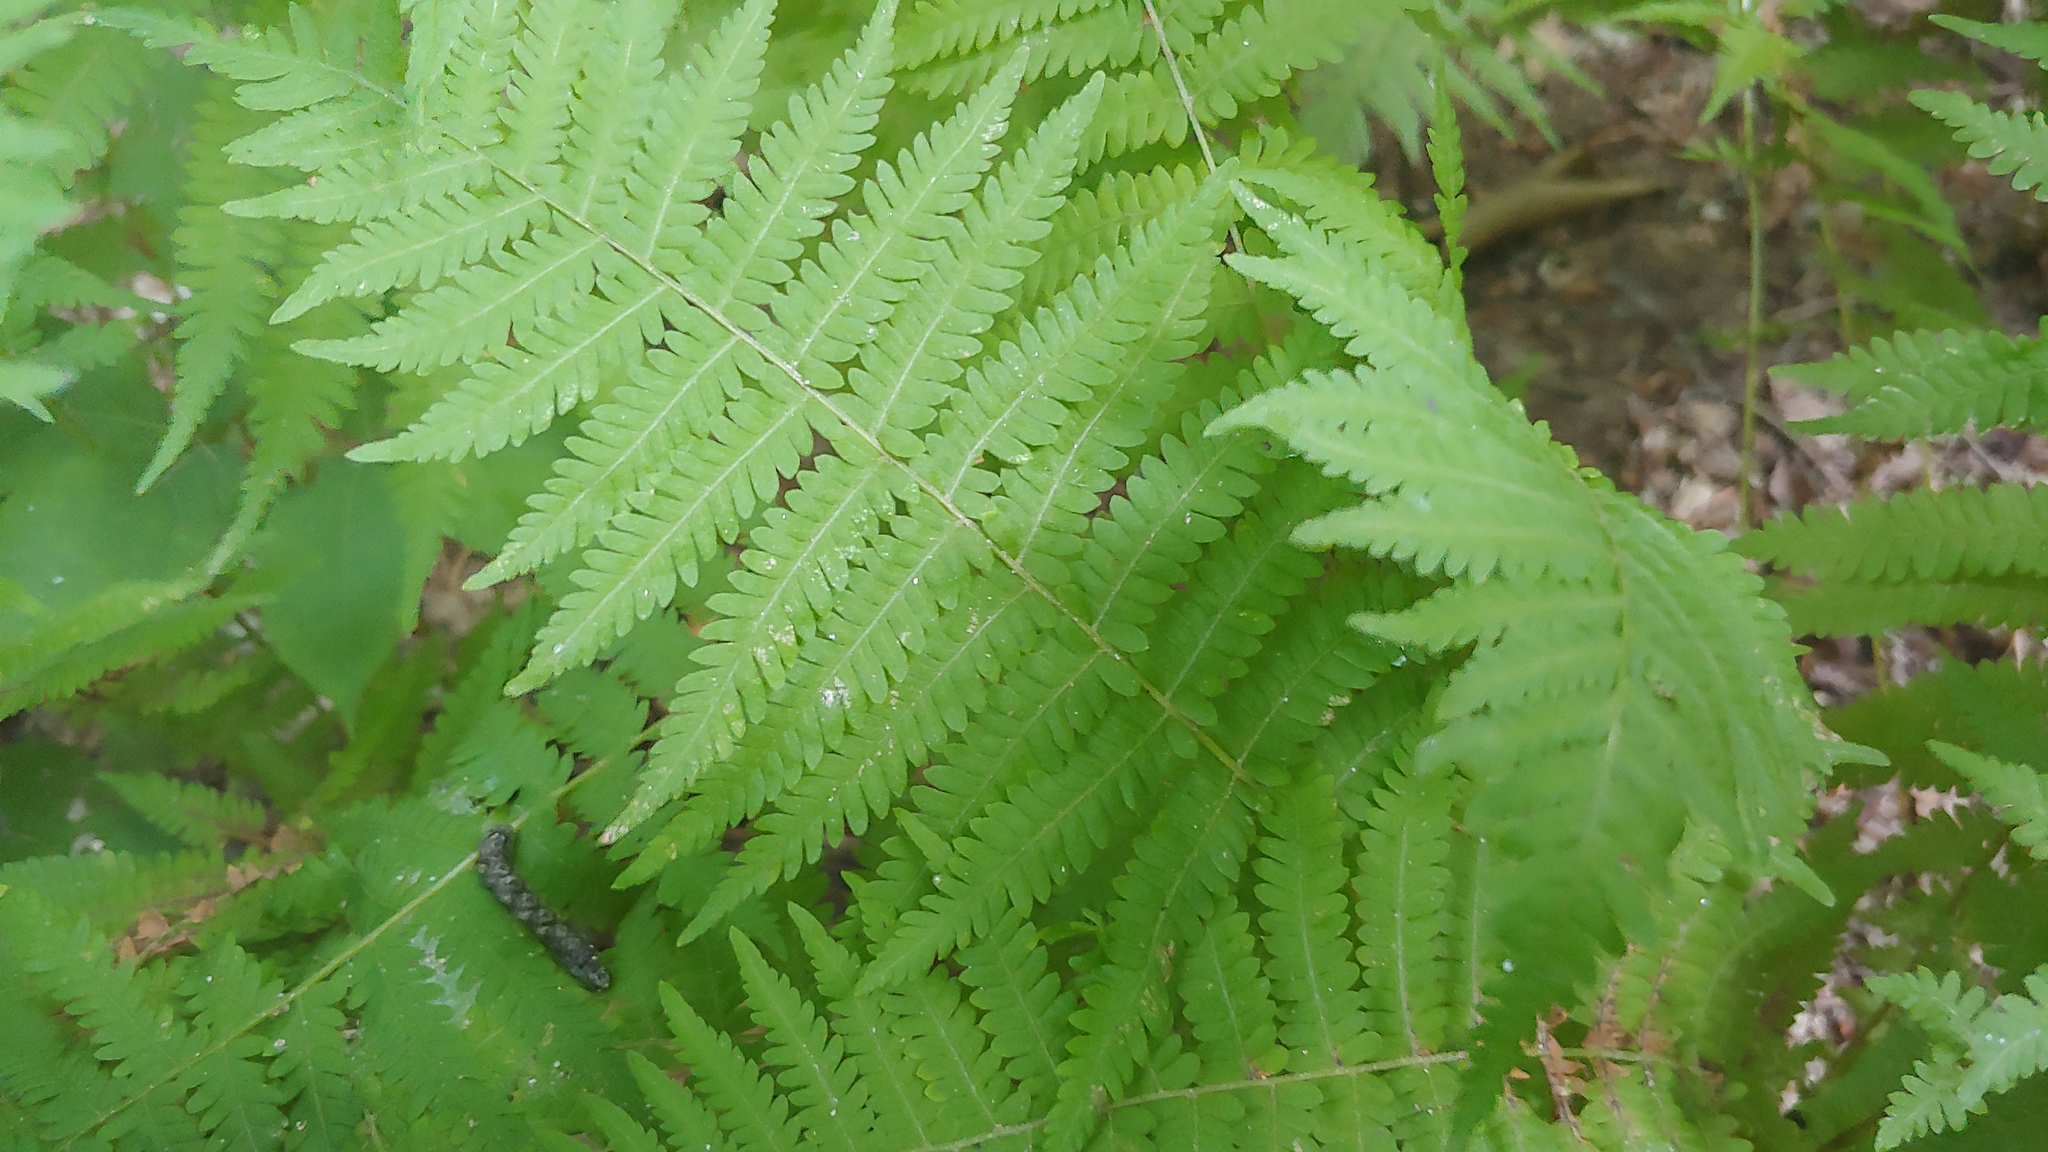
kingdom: Plantae
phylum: Tracheophyta
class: Polypodiopsida
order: Polypodiales
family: Thelypteridaceae
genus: Amauropelta
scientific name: Amauropelta noveboracensis
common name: New york fern
